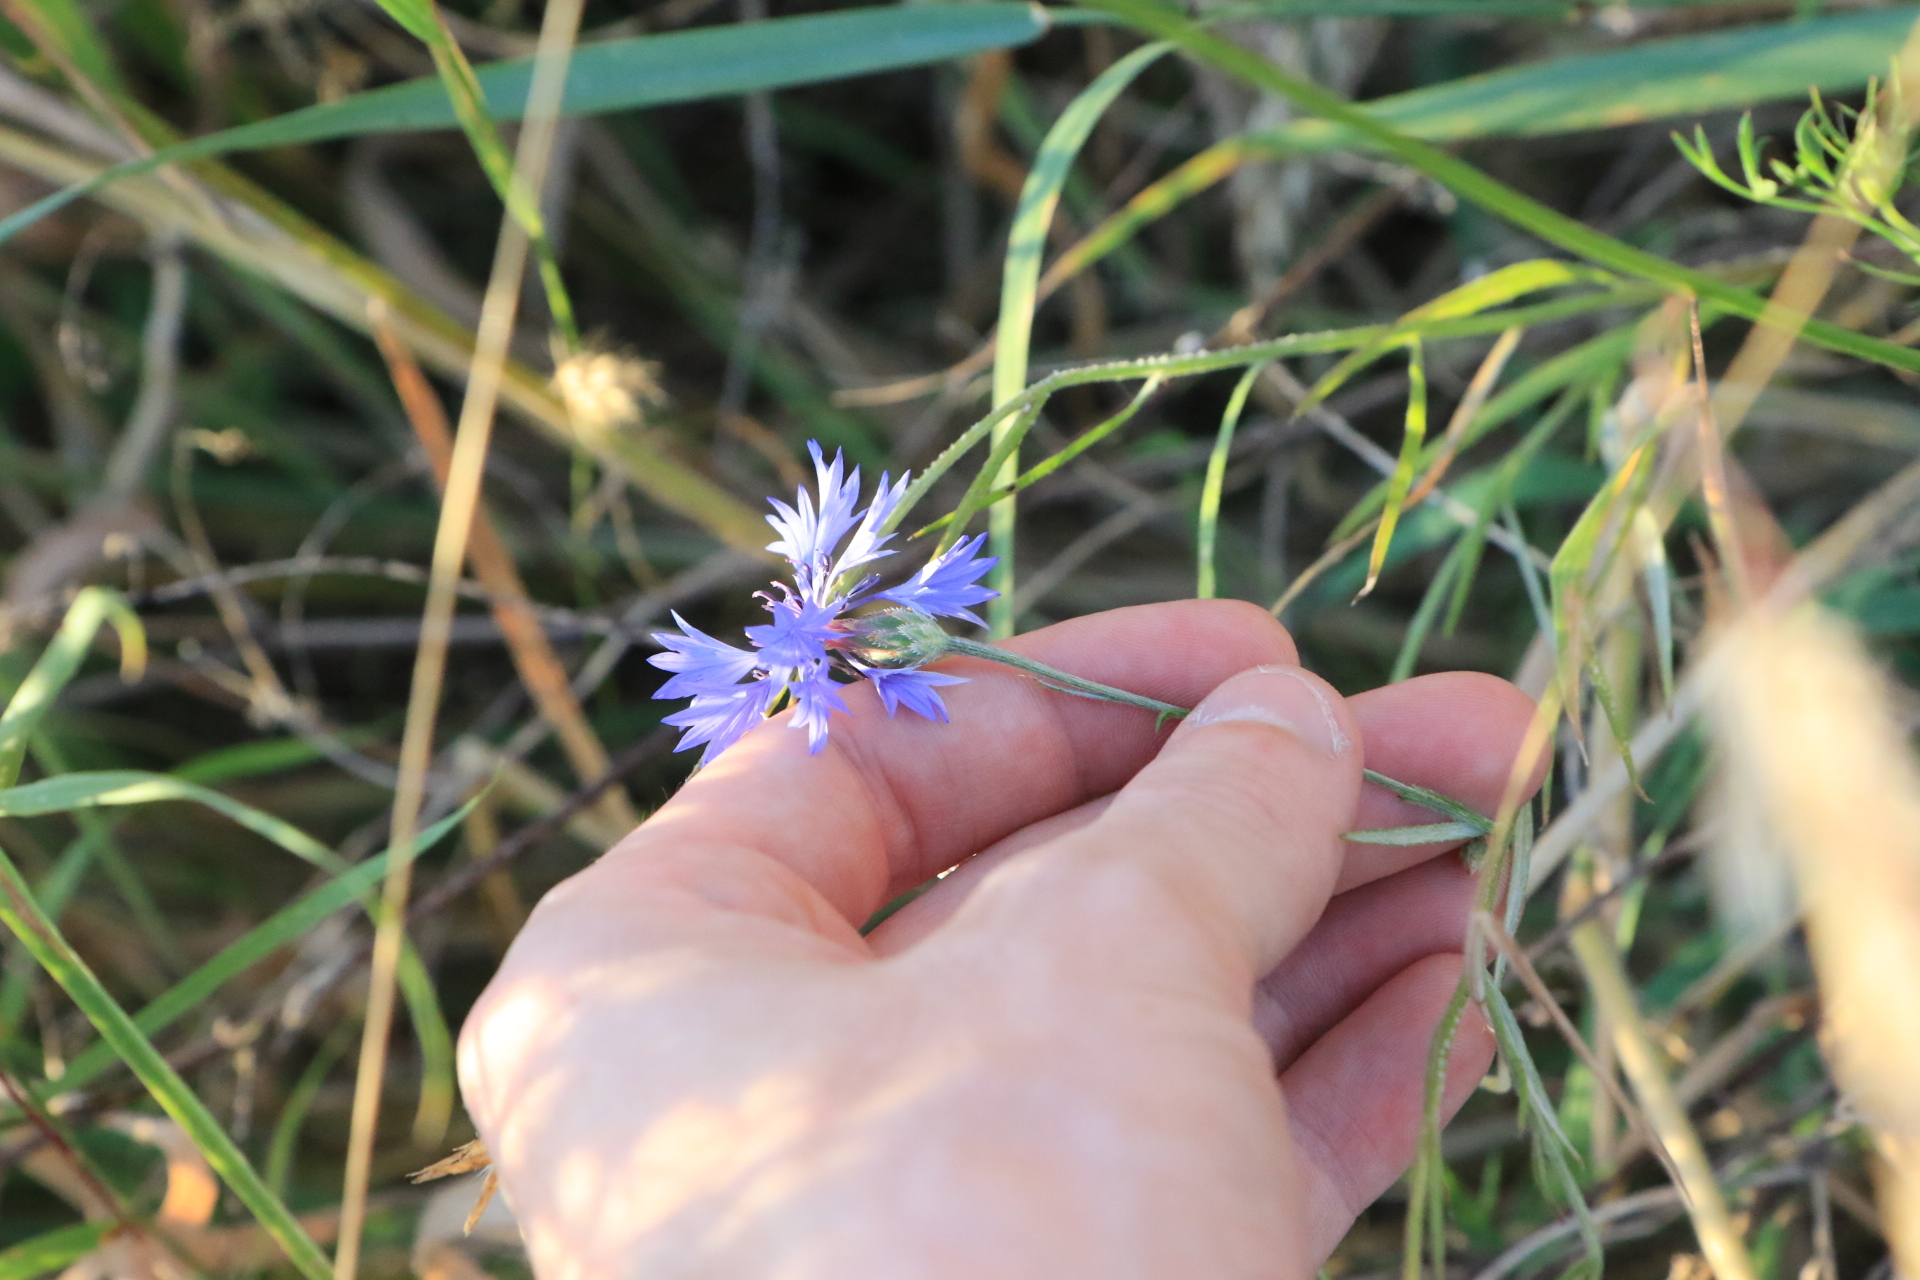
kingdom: Plantae
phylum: Tracheophyta
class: Magnoliopsida
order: Asterales
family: Asteraceae
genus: Centaurea
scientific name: Centaurea cyanus
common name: Cornflower
